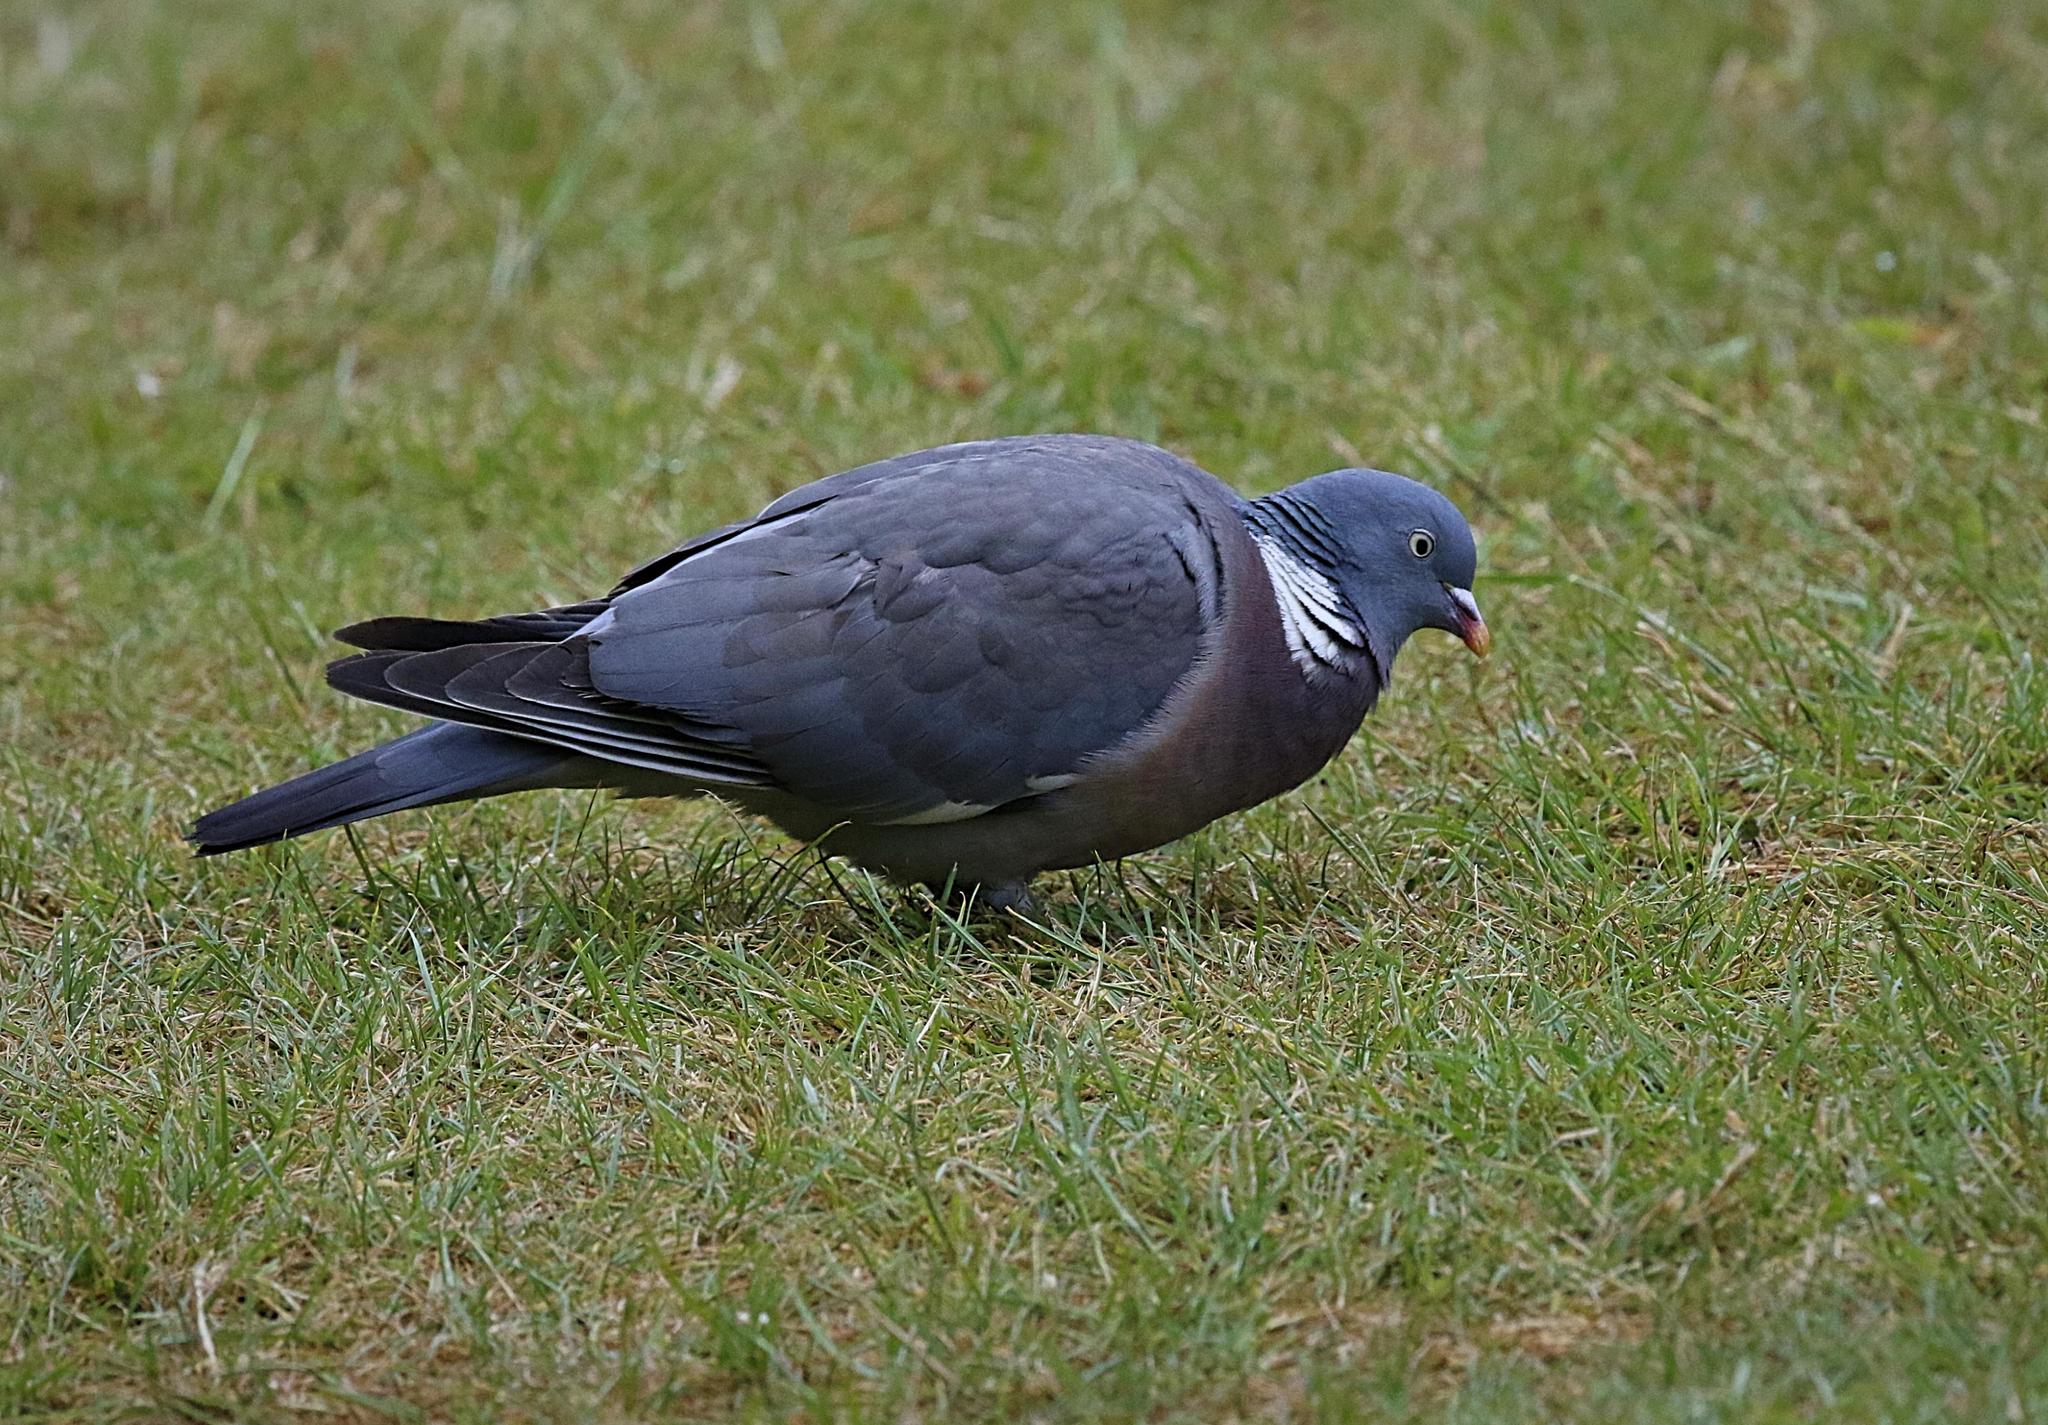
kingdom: Animalia
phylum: Chordata
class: Aves
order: Columbiformes
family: Columbidae
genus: Columba
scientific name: Columba palumbus
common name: Common wood pigeon
